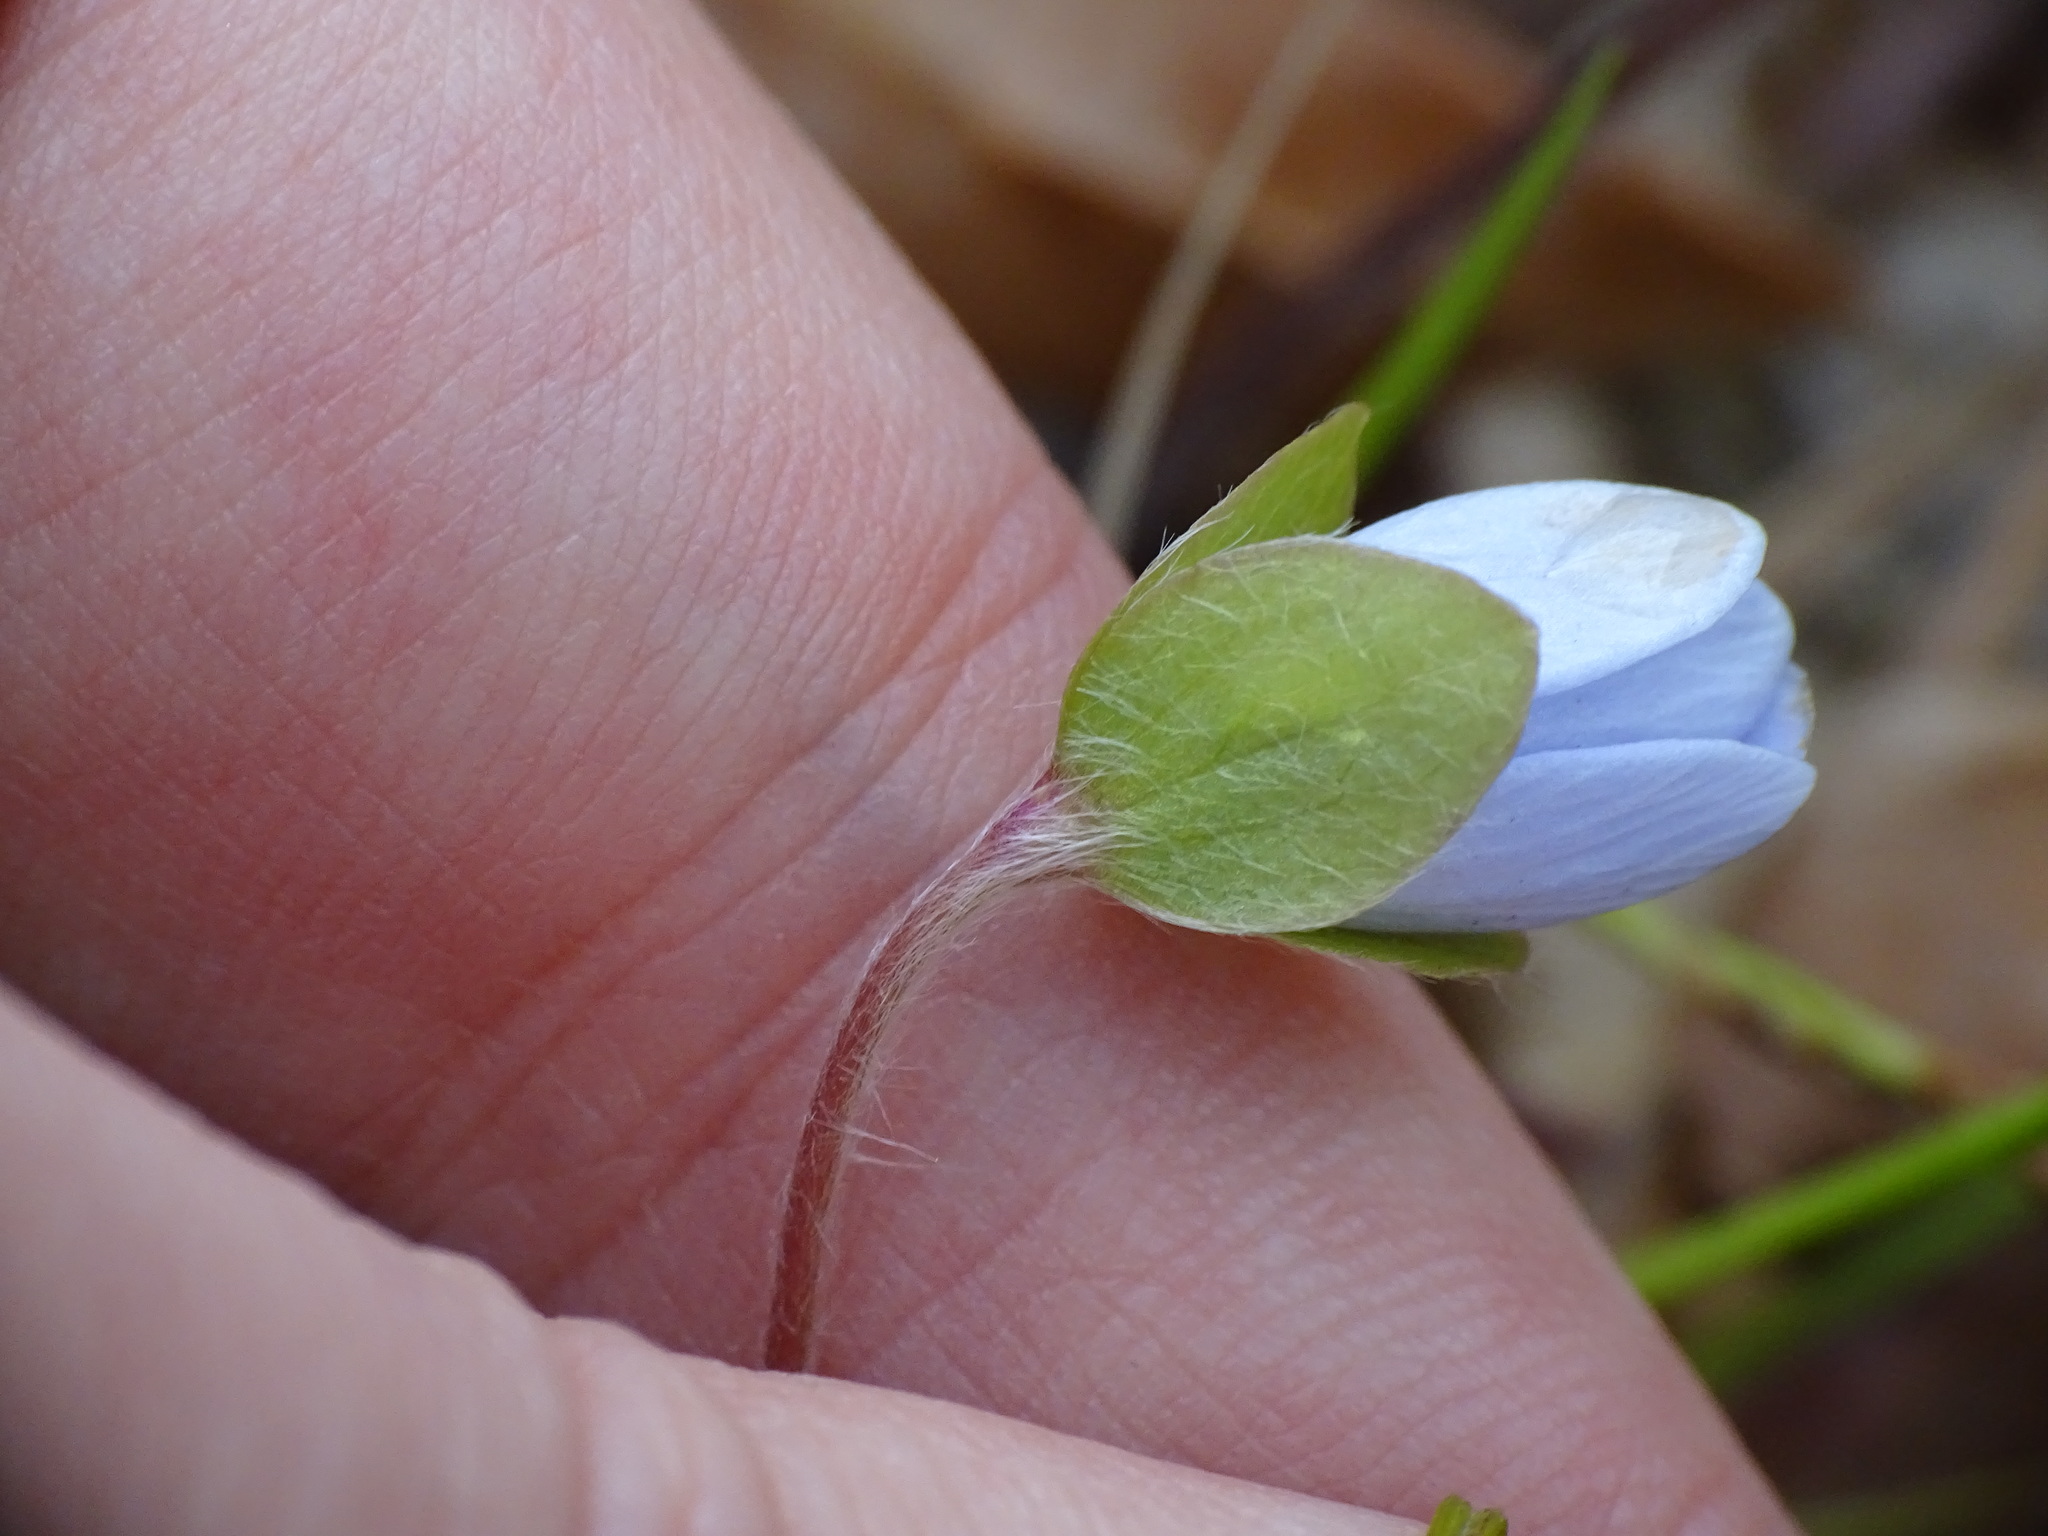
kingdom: Plantae
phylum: Tracheophyta
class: Magnoliopsida
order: Ranunculales
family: Ranunculaceae
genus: Hepatica
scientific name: Hepatica americana
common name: American hepatica
